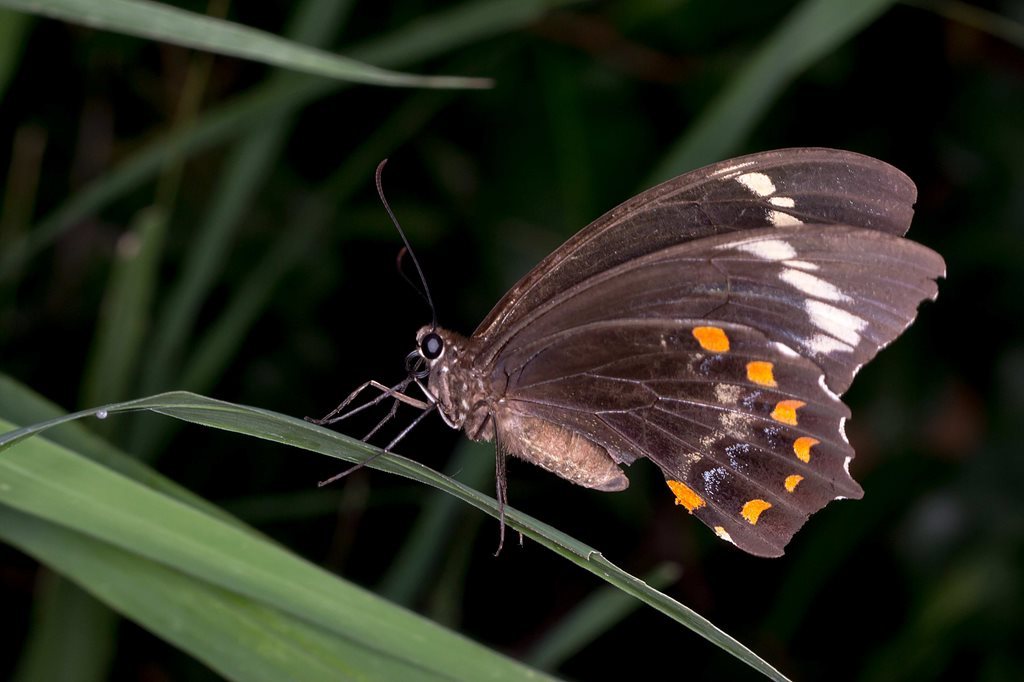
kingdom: Animalia
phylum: Arthropoda
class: Insecta
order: Lepidoptera
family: Papilionidae
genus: Papilio
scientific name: Papilio aegeus
